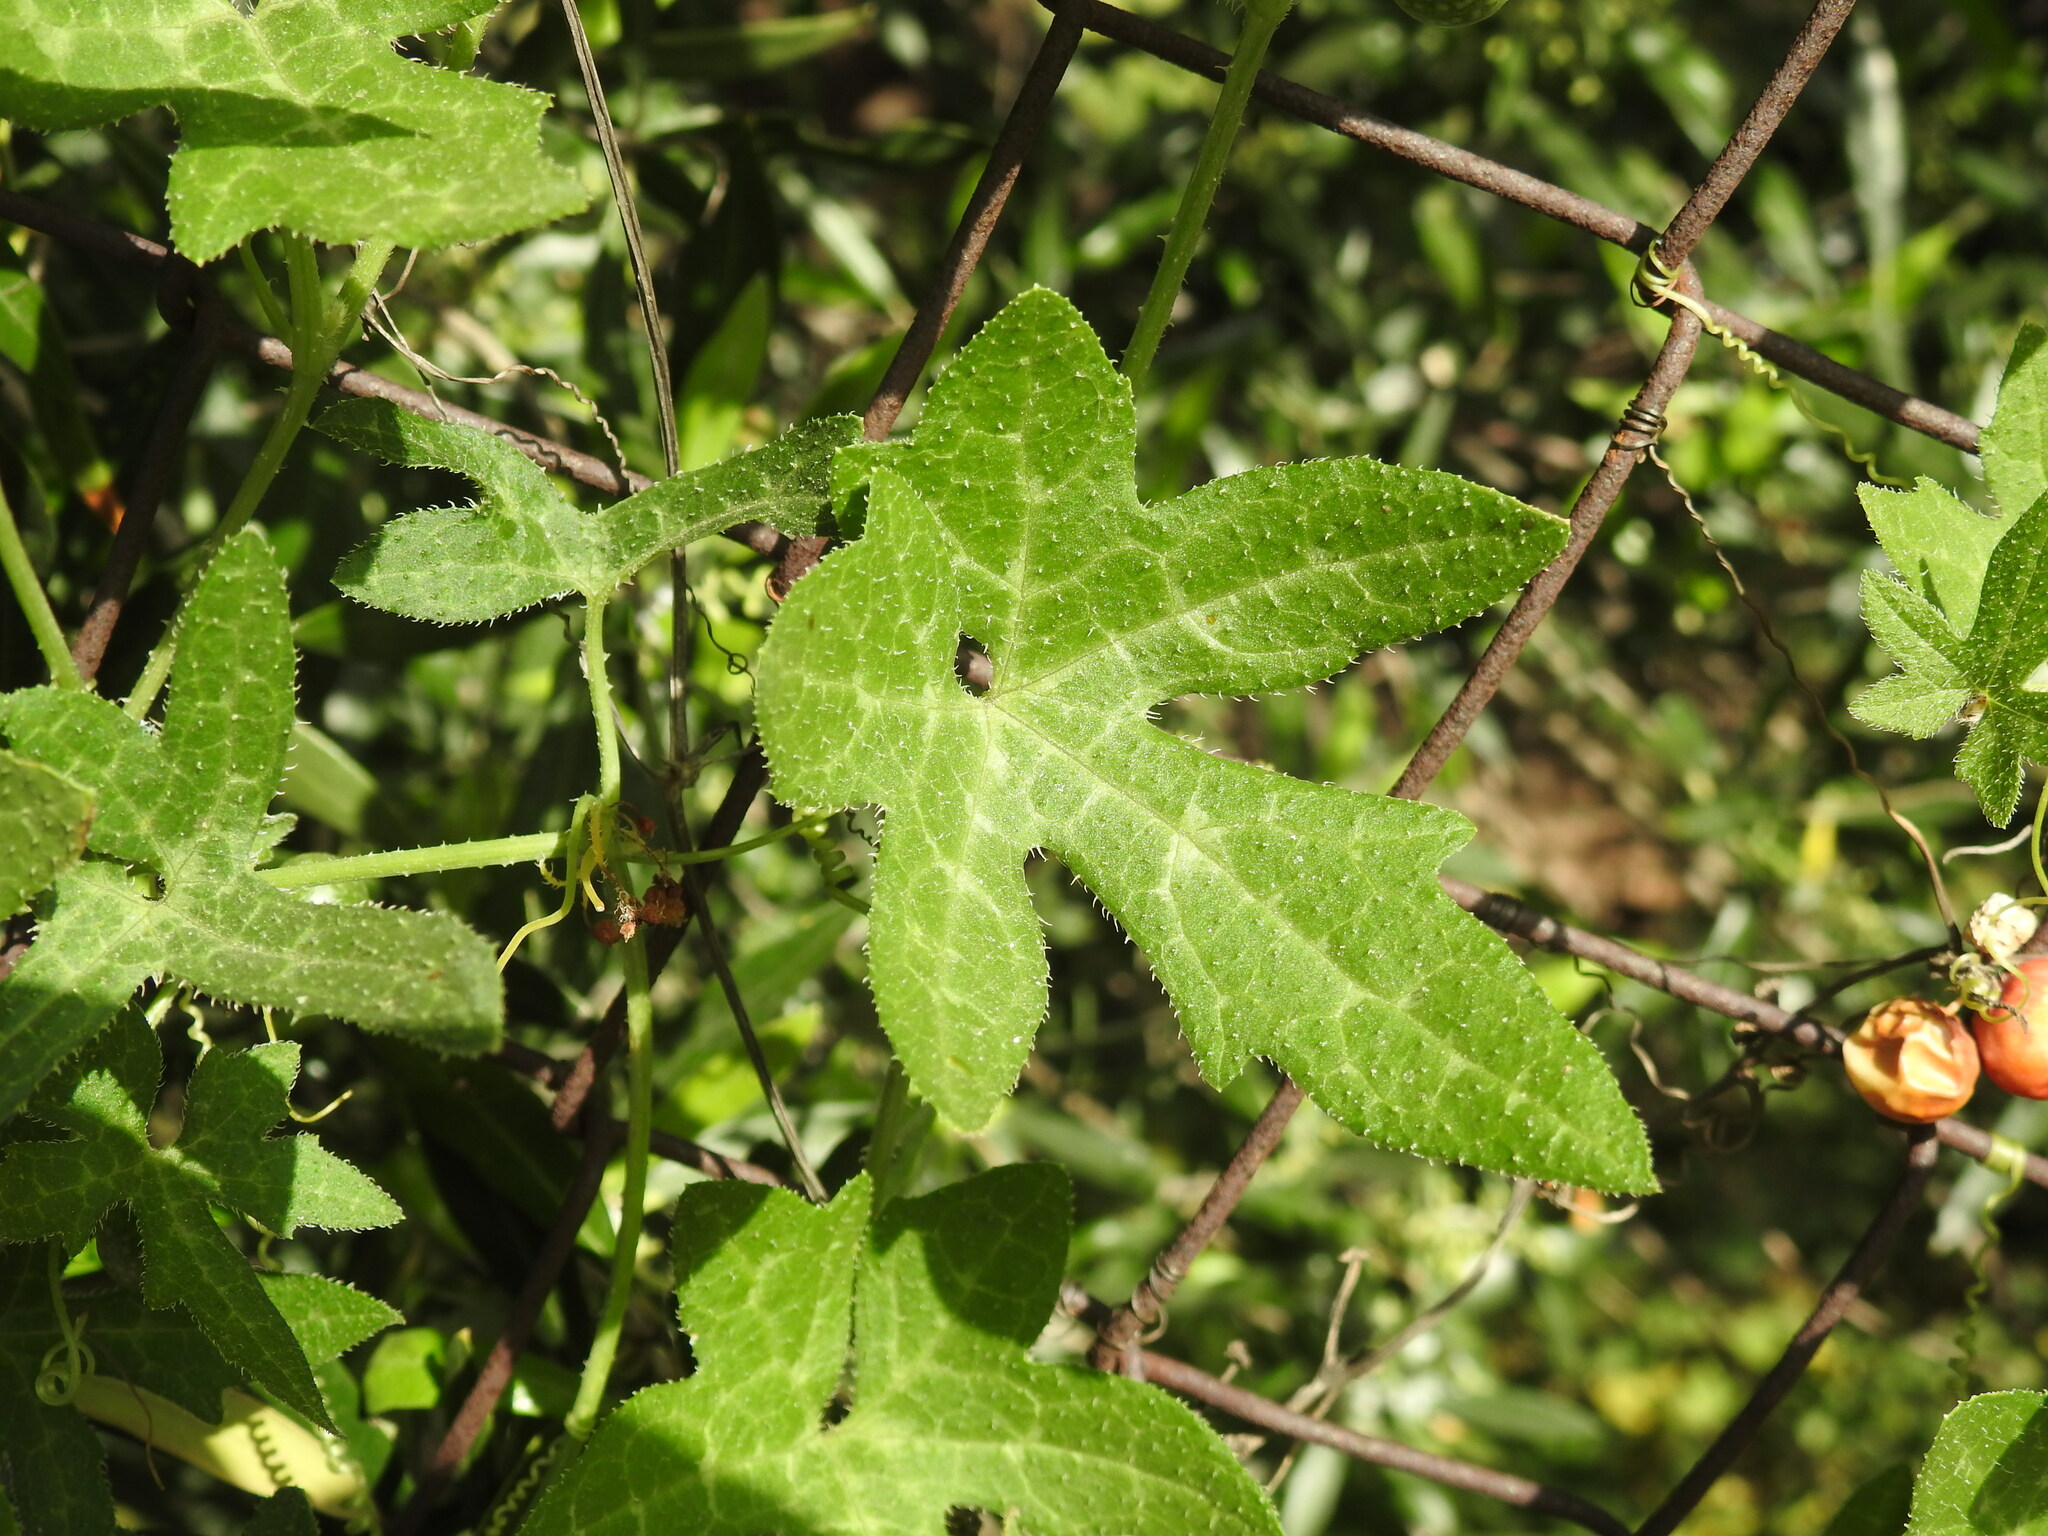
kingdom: Plantae
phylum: Tracheophyta
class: Magnoliopsida
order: Cucurbitales
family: Cucurbitaceae
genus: Bryonia
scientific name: Bryonia cretica
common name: Cretan bryony
